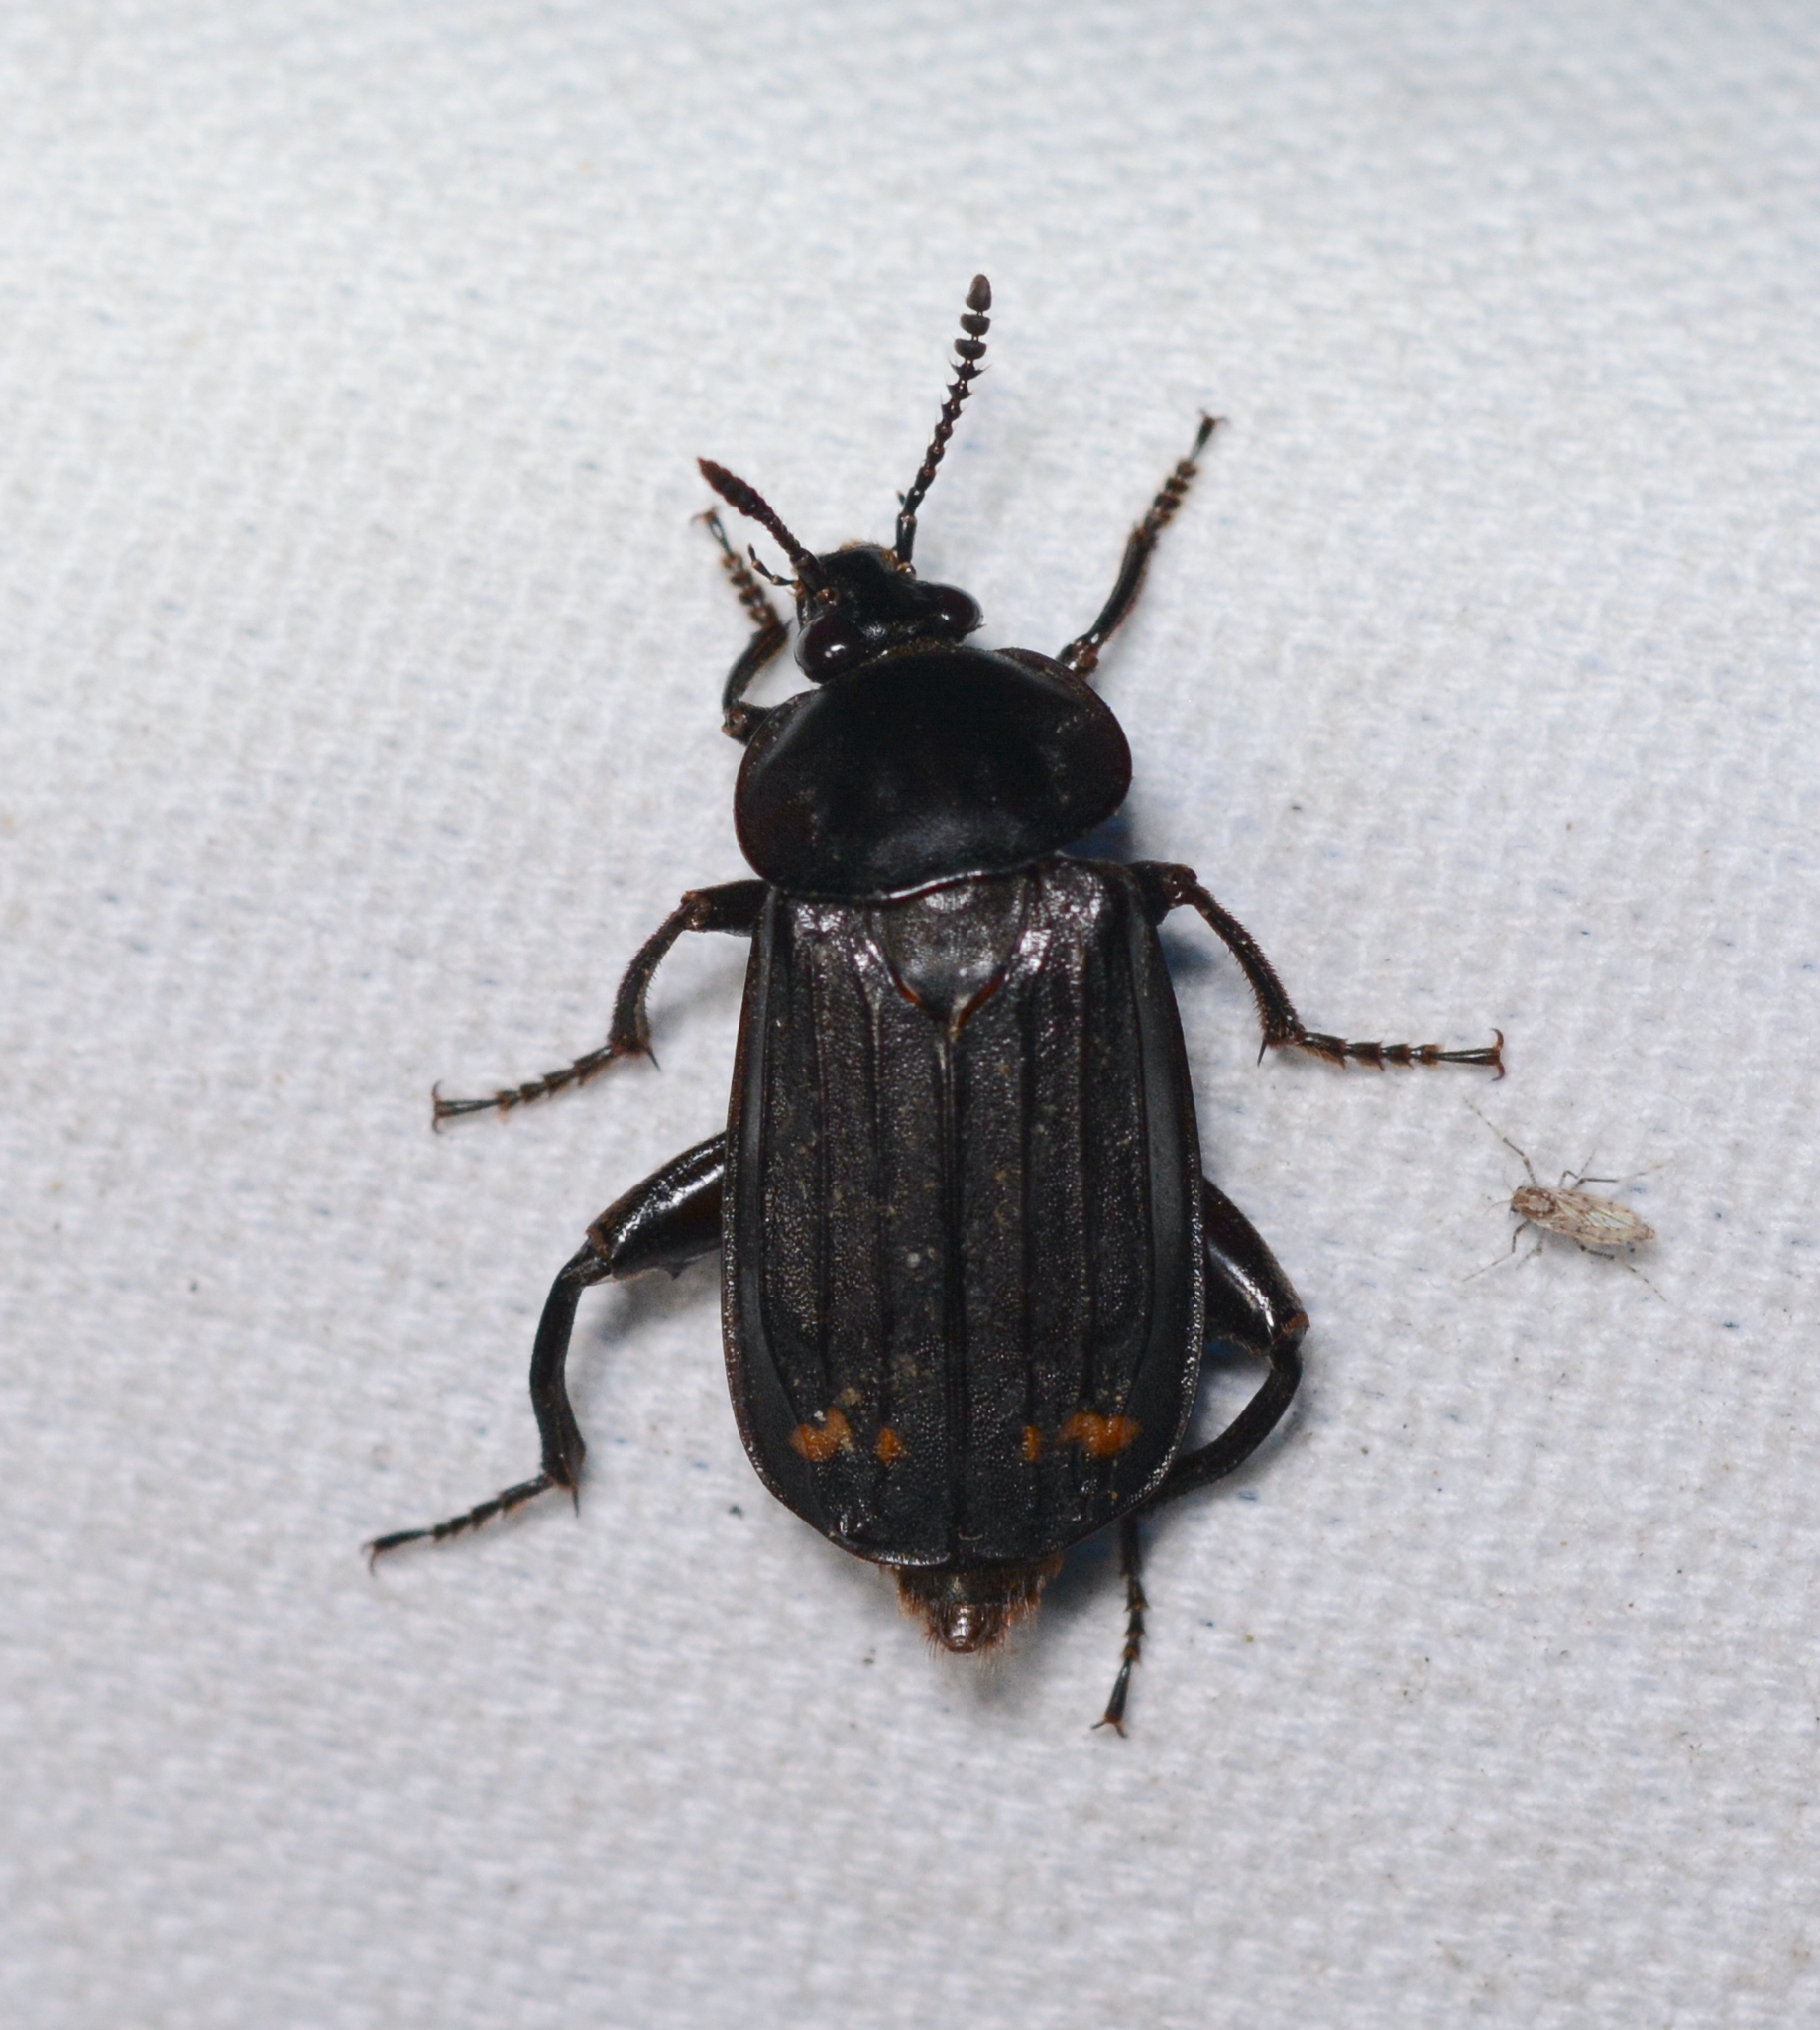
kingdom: Animalia
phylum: Arthropoda
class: Insecta
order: Coleoptera
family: Staphylinidae
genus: Necrodes
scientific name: Necrodes surinamensis
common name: Red-lined carrion beetle
